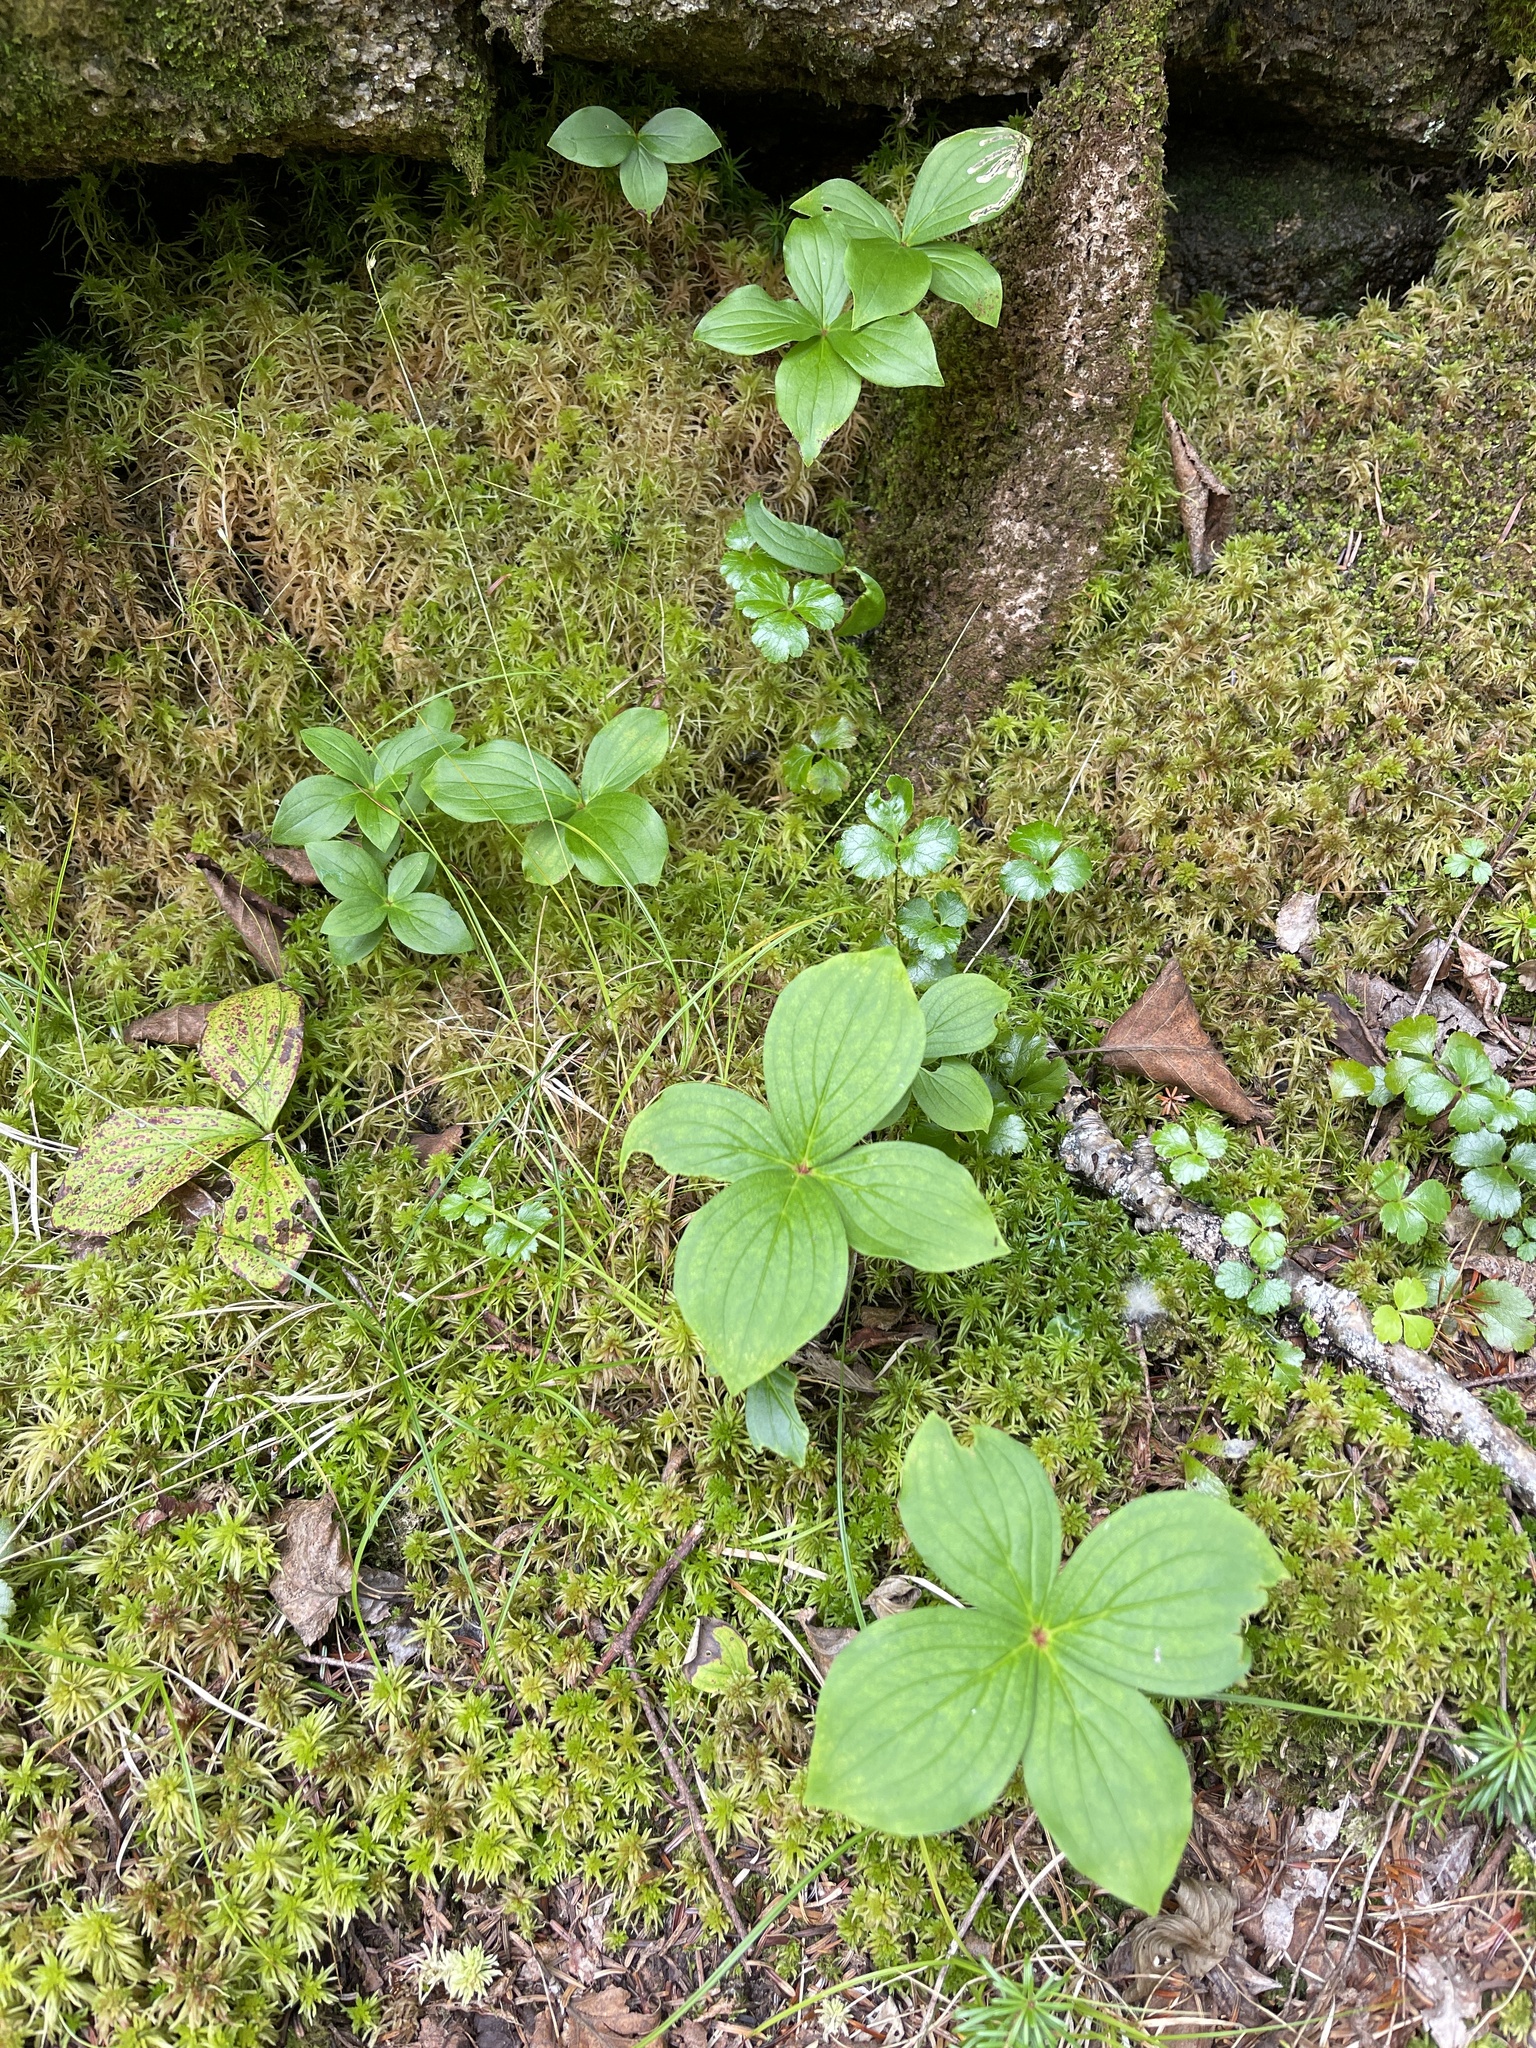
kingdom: Plantae
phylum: Tracheophyta
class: Magnoliopsida
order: Cornales
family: Cornaceae
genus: Cornus
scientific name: Cornus canadensis
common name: Creeping dogwood
